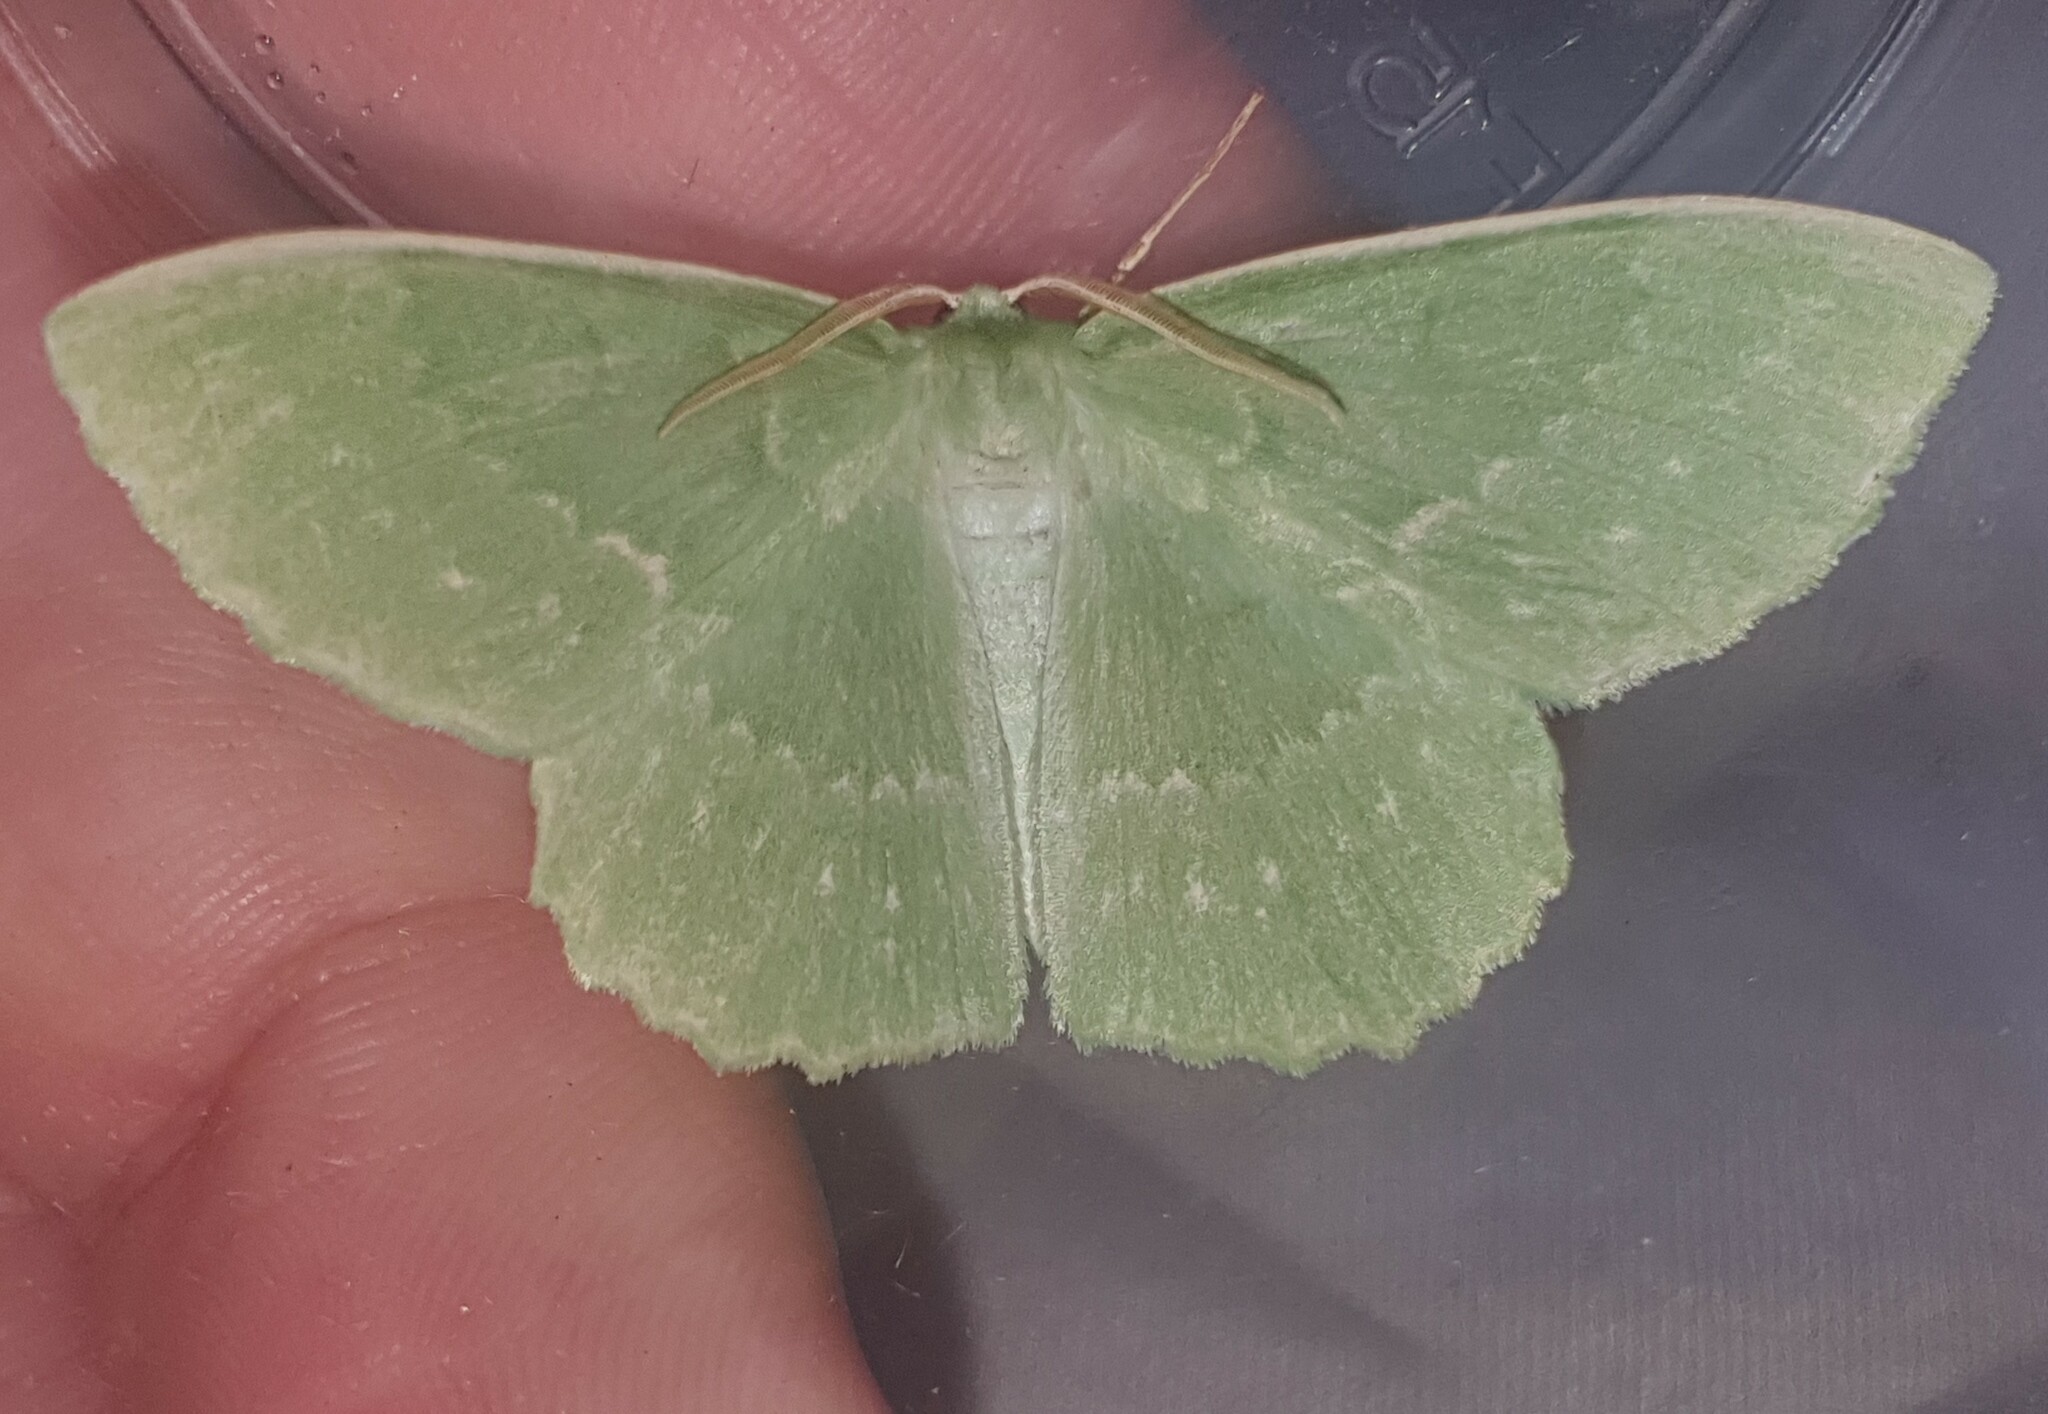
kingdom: Animalia
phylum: Arthropoda
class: Insecta
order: Lepidoptera
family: Geometridae
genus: Geometra
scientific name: Geometra papilionaria
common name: Large emerald
